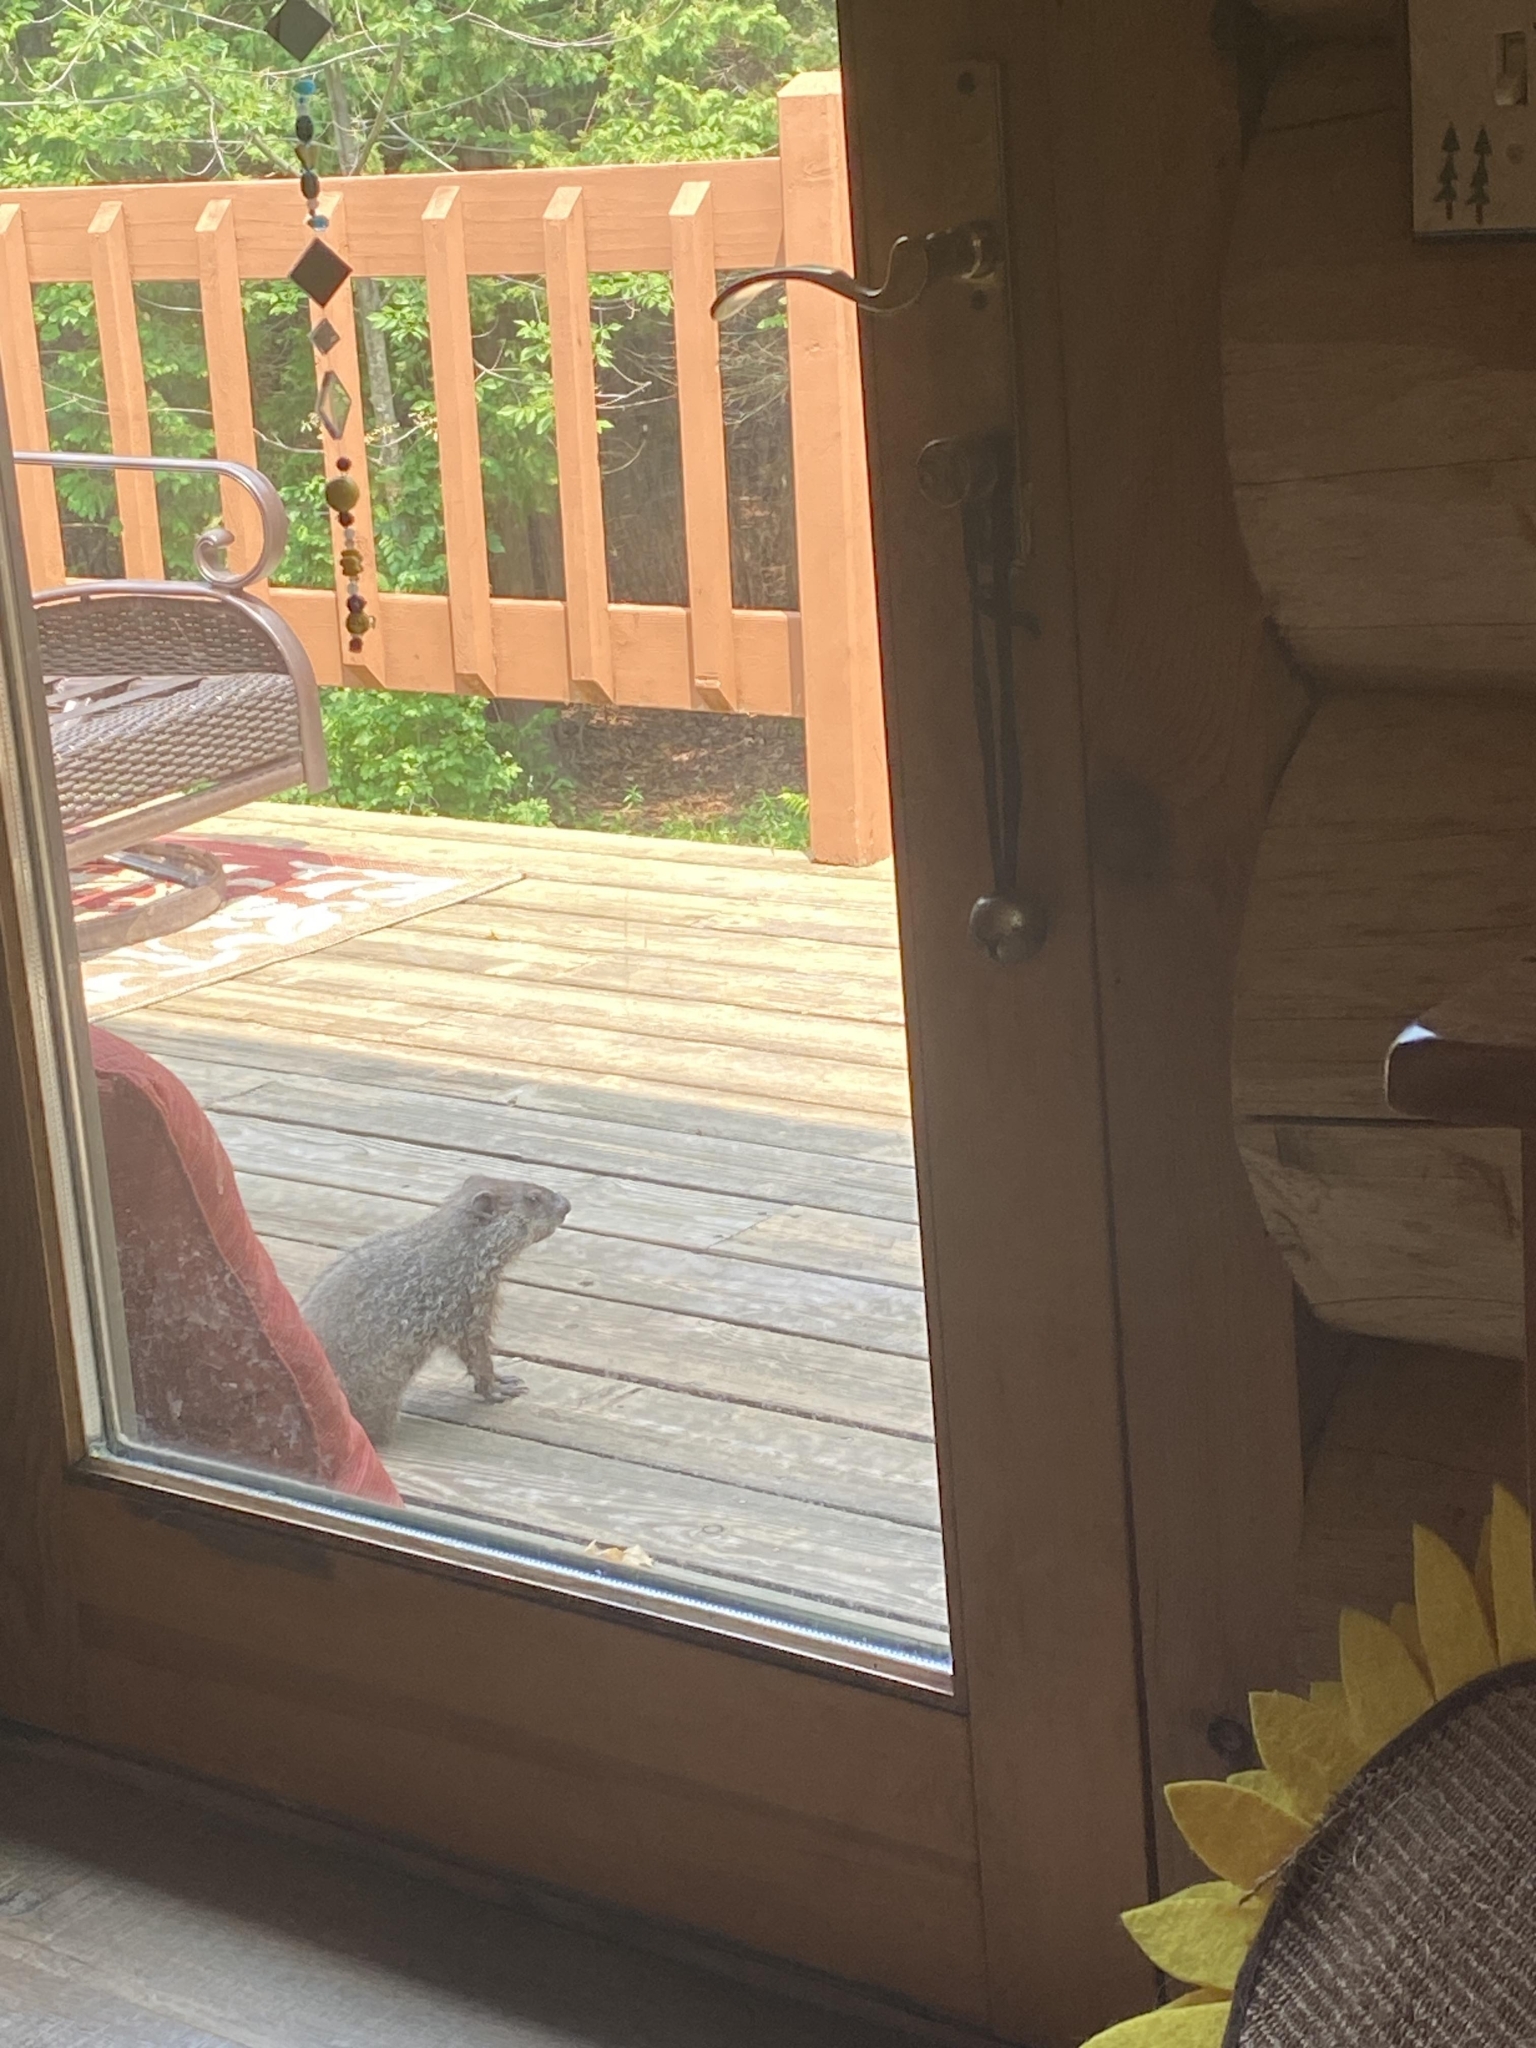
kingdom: Animalia
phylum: Chordata
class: Mammalia
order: Rodentia
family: Sciuridae
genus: Marmota
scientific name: Marmota monax
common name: Groundhog
